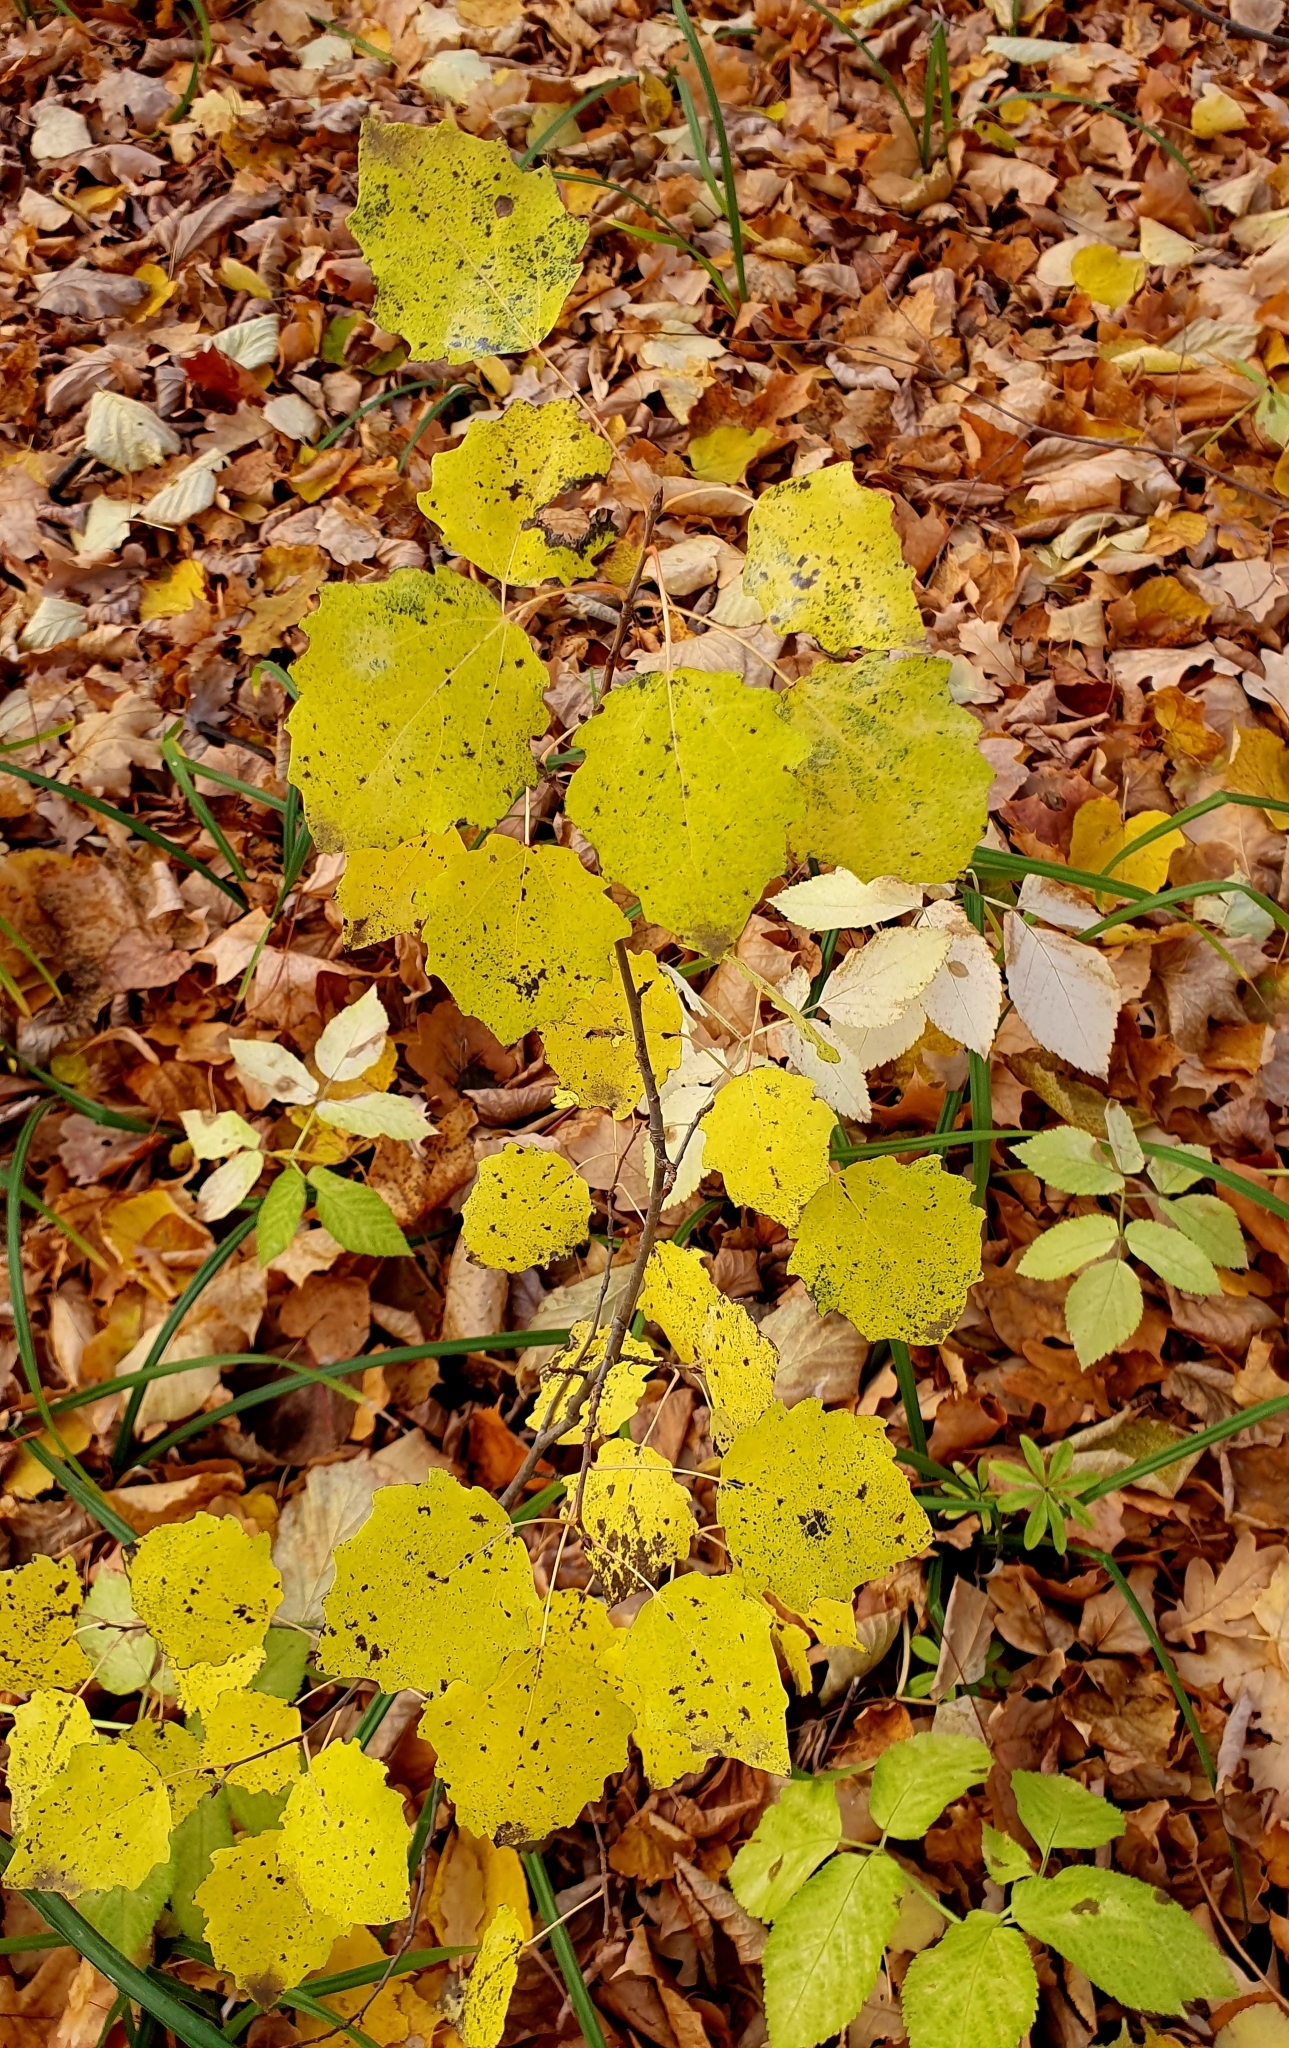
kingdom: Plantae
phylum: Tracheophyta
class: Magnoliopsida
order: Malpighiales
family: Salicaceae
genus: Populus
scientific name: Populus tremula
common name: European aspen
